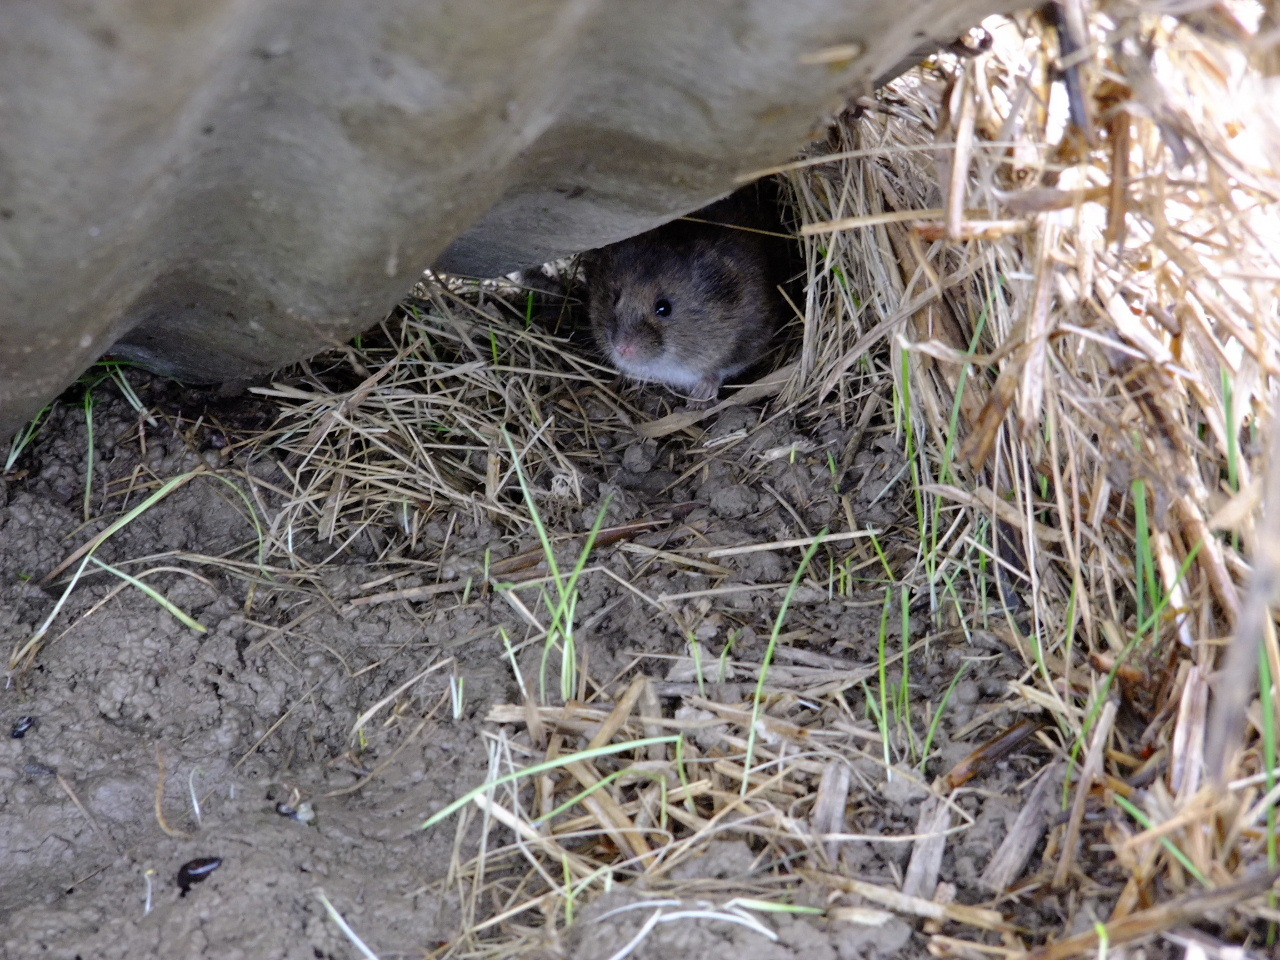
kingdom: Animalia
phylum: Chordata
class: Mammalia
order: Rodentia
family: Cricetidae
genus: Microtus
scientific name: Microtus pennsylvanicus
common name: Meadow vole
